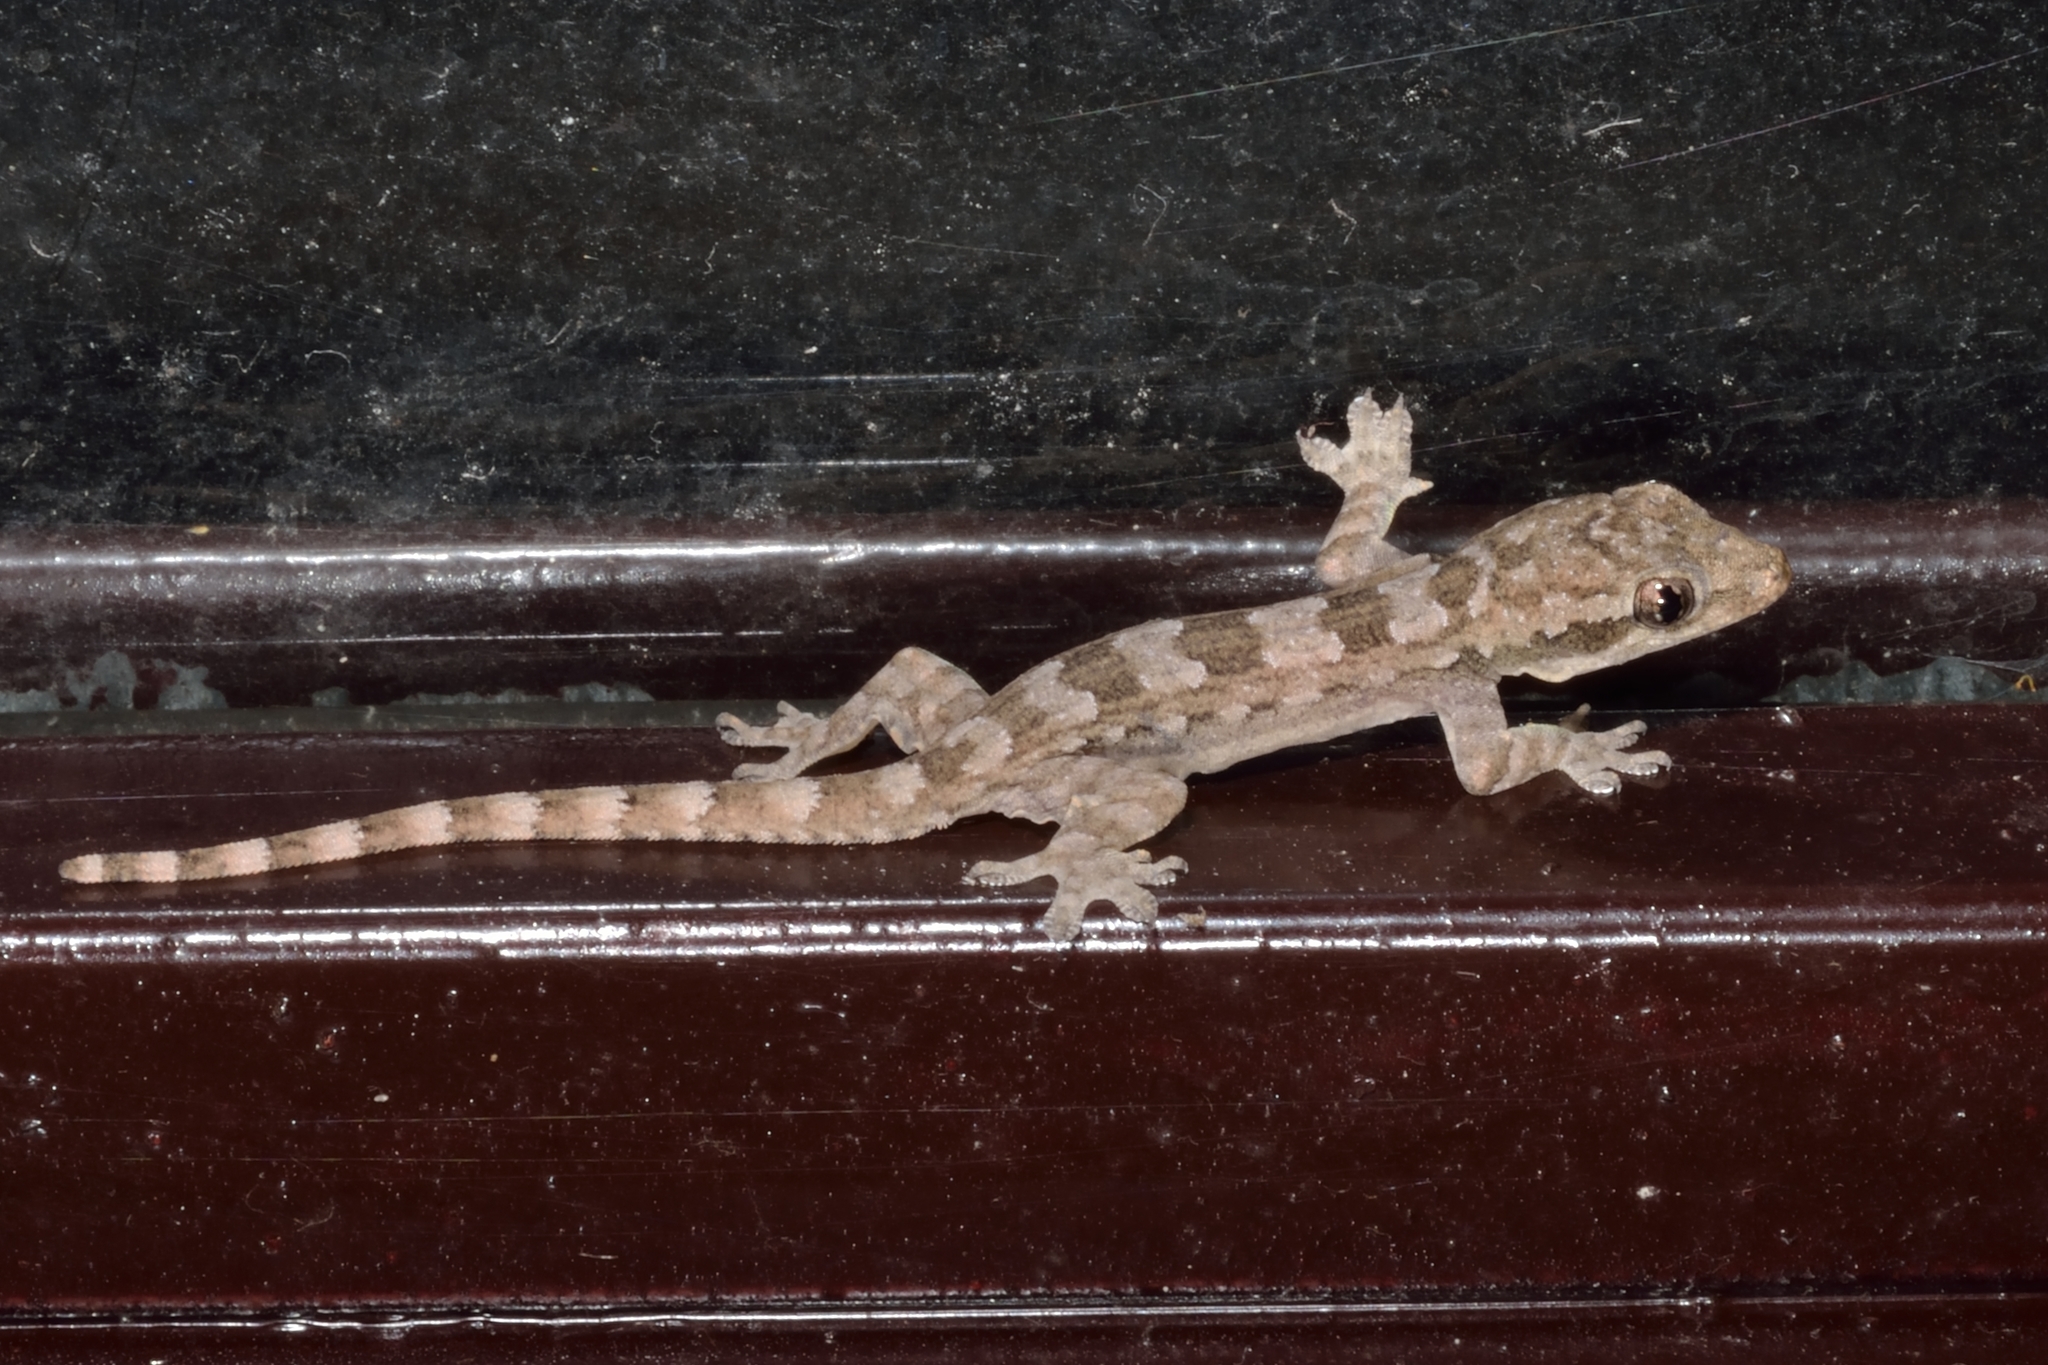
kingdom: Animalia
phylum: Chordata
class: Squamata
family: Gekkonidae
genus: Hemidactylus
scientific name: Hemidactylus platyurus
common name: Flat-tailed house gecko
